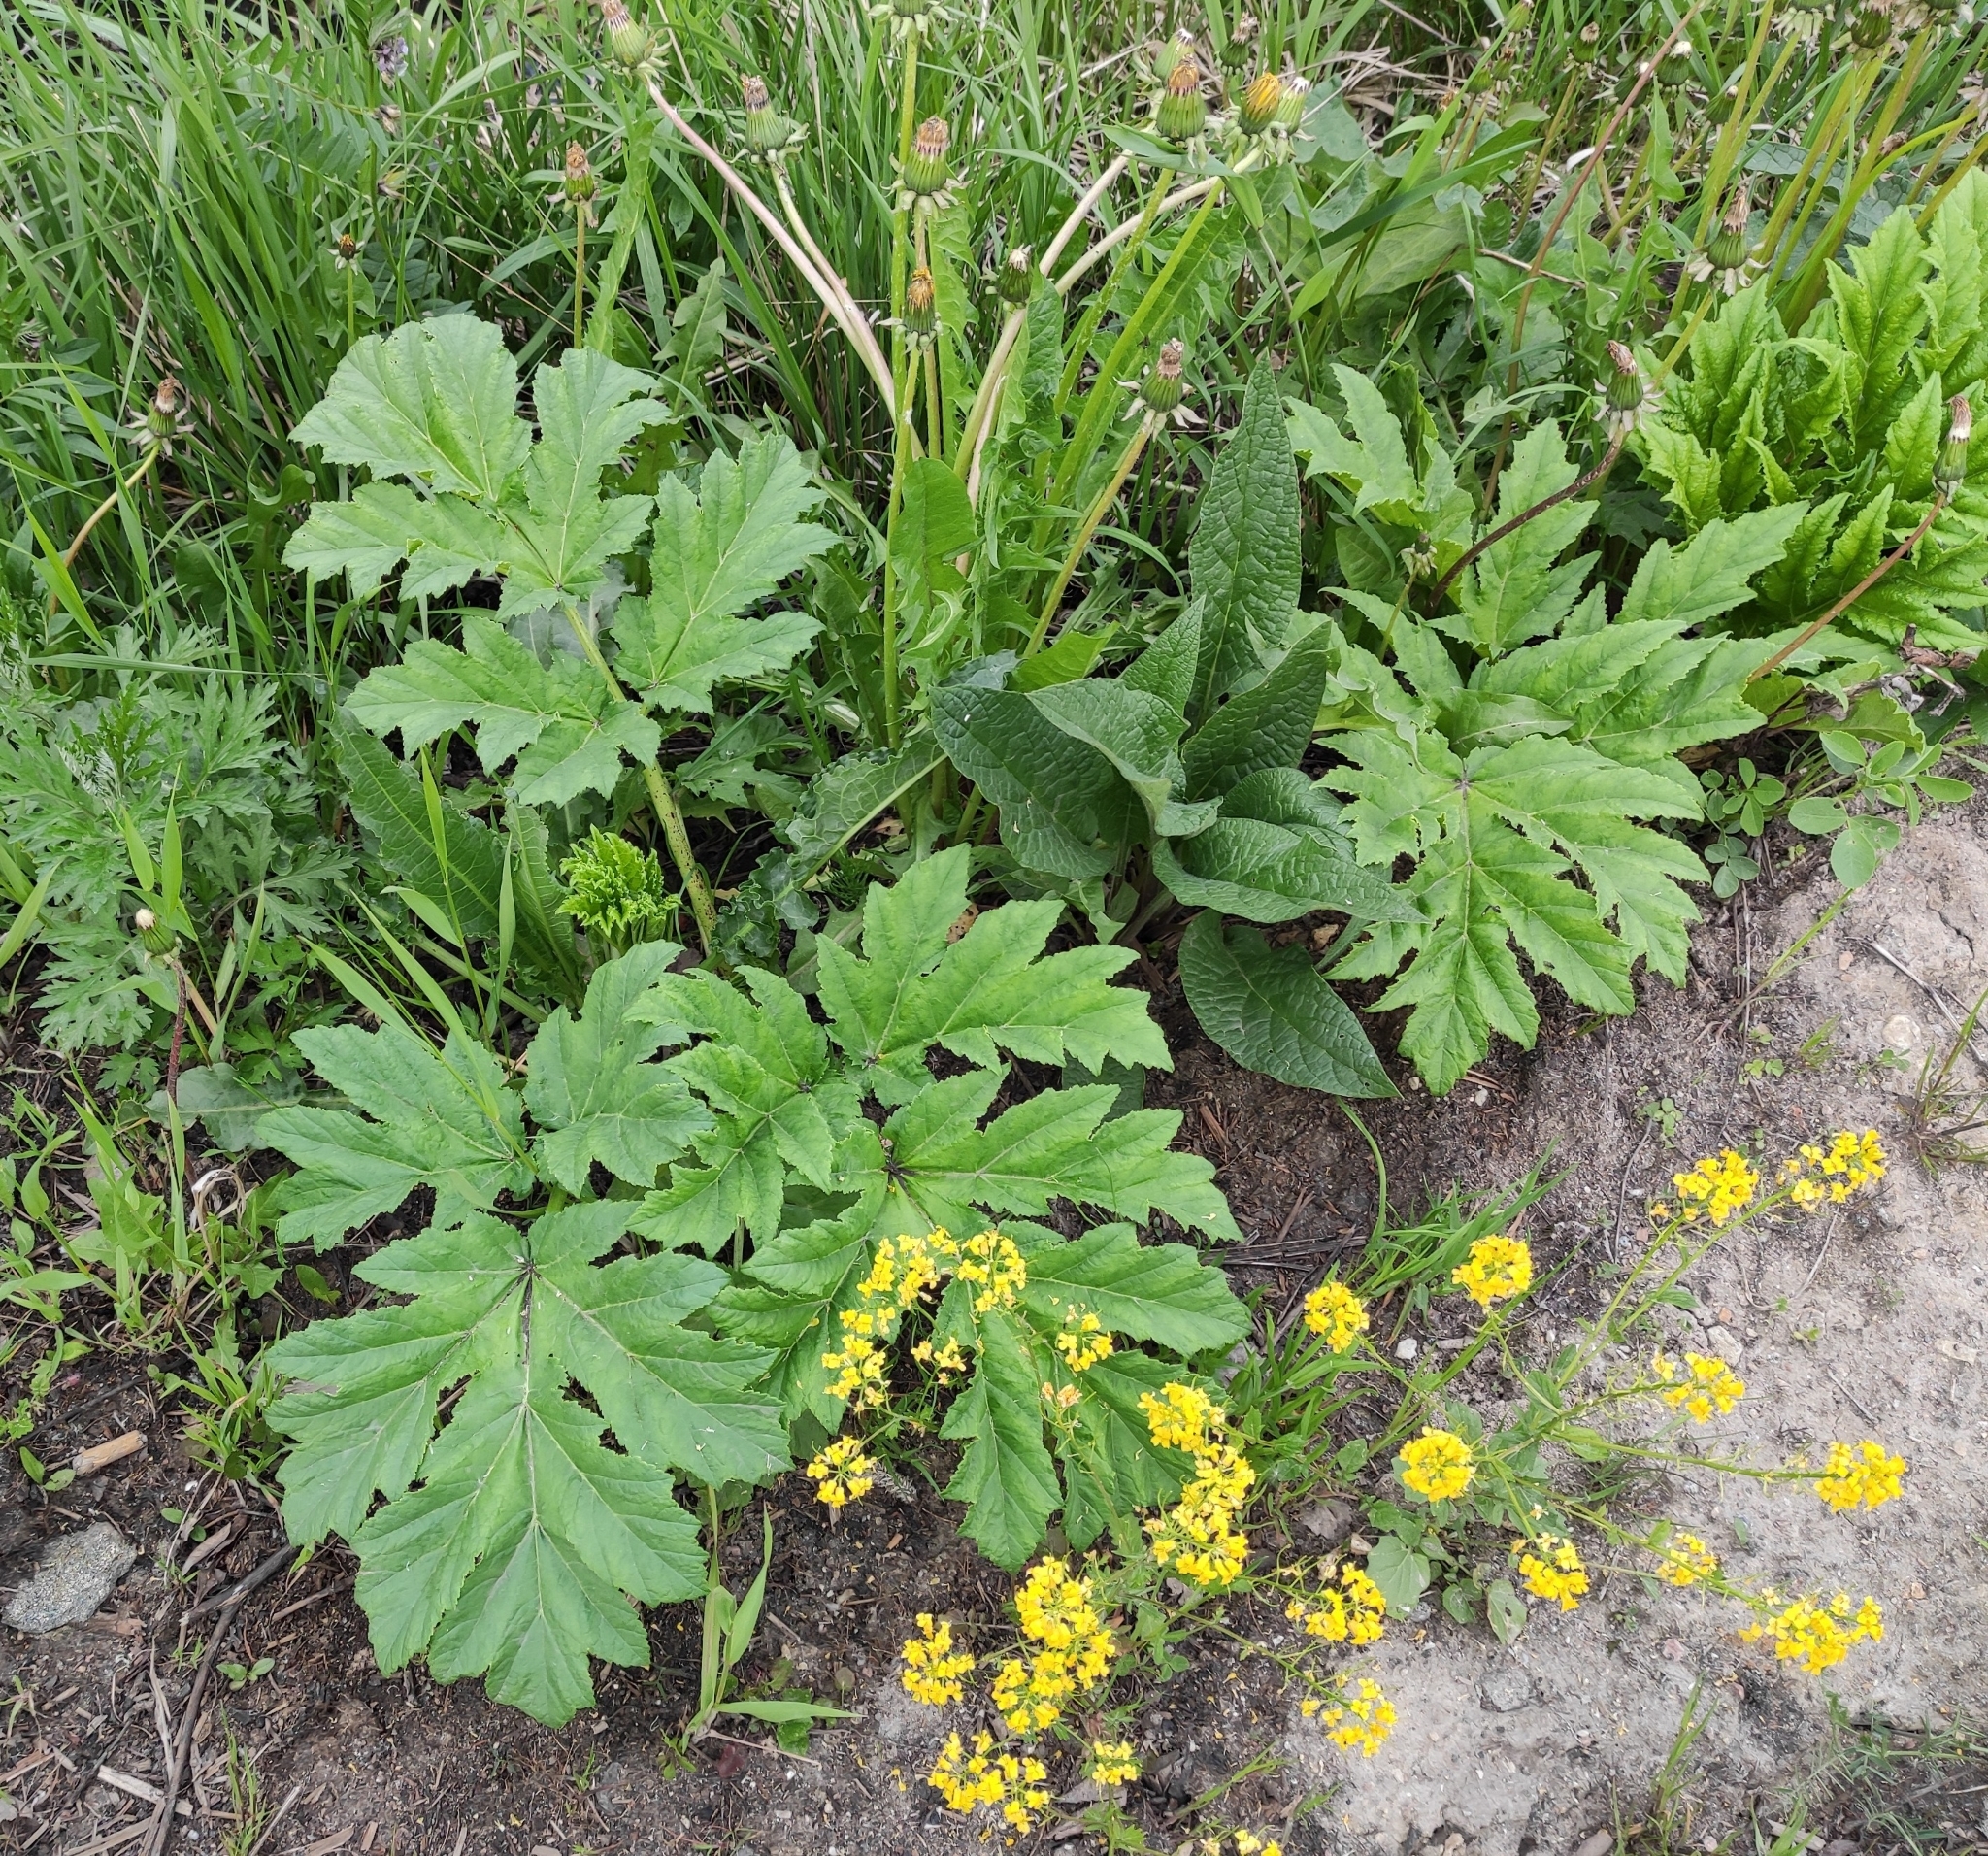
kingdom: Plantae
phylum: Tracheophyta
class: Magnoliopsida
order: Apiales
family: Apiaceae
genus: Heracleum
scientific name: Heracleum sosnowskyi
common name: Sosnowsky's hogweed
